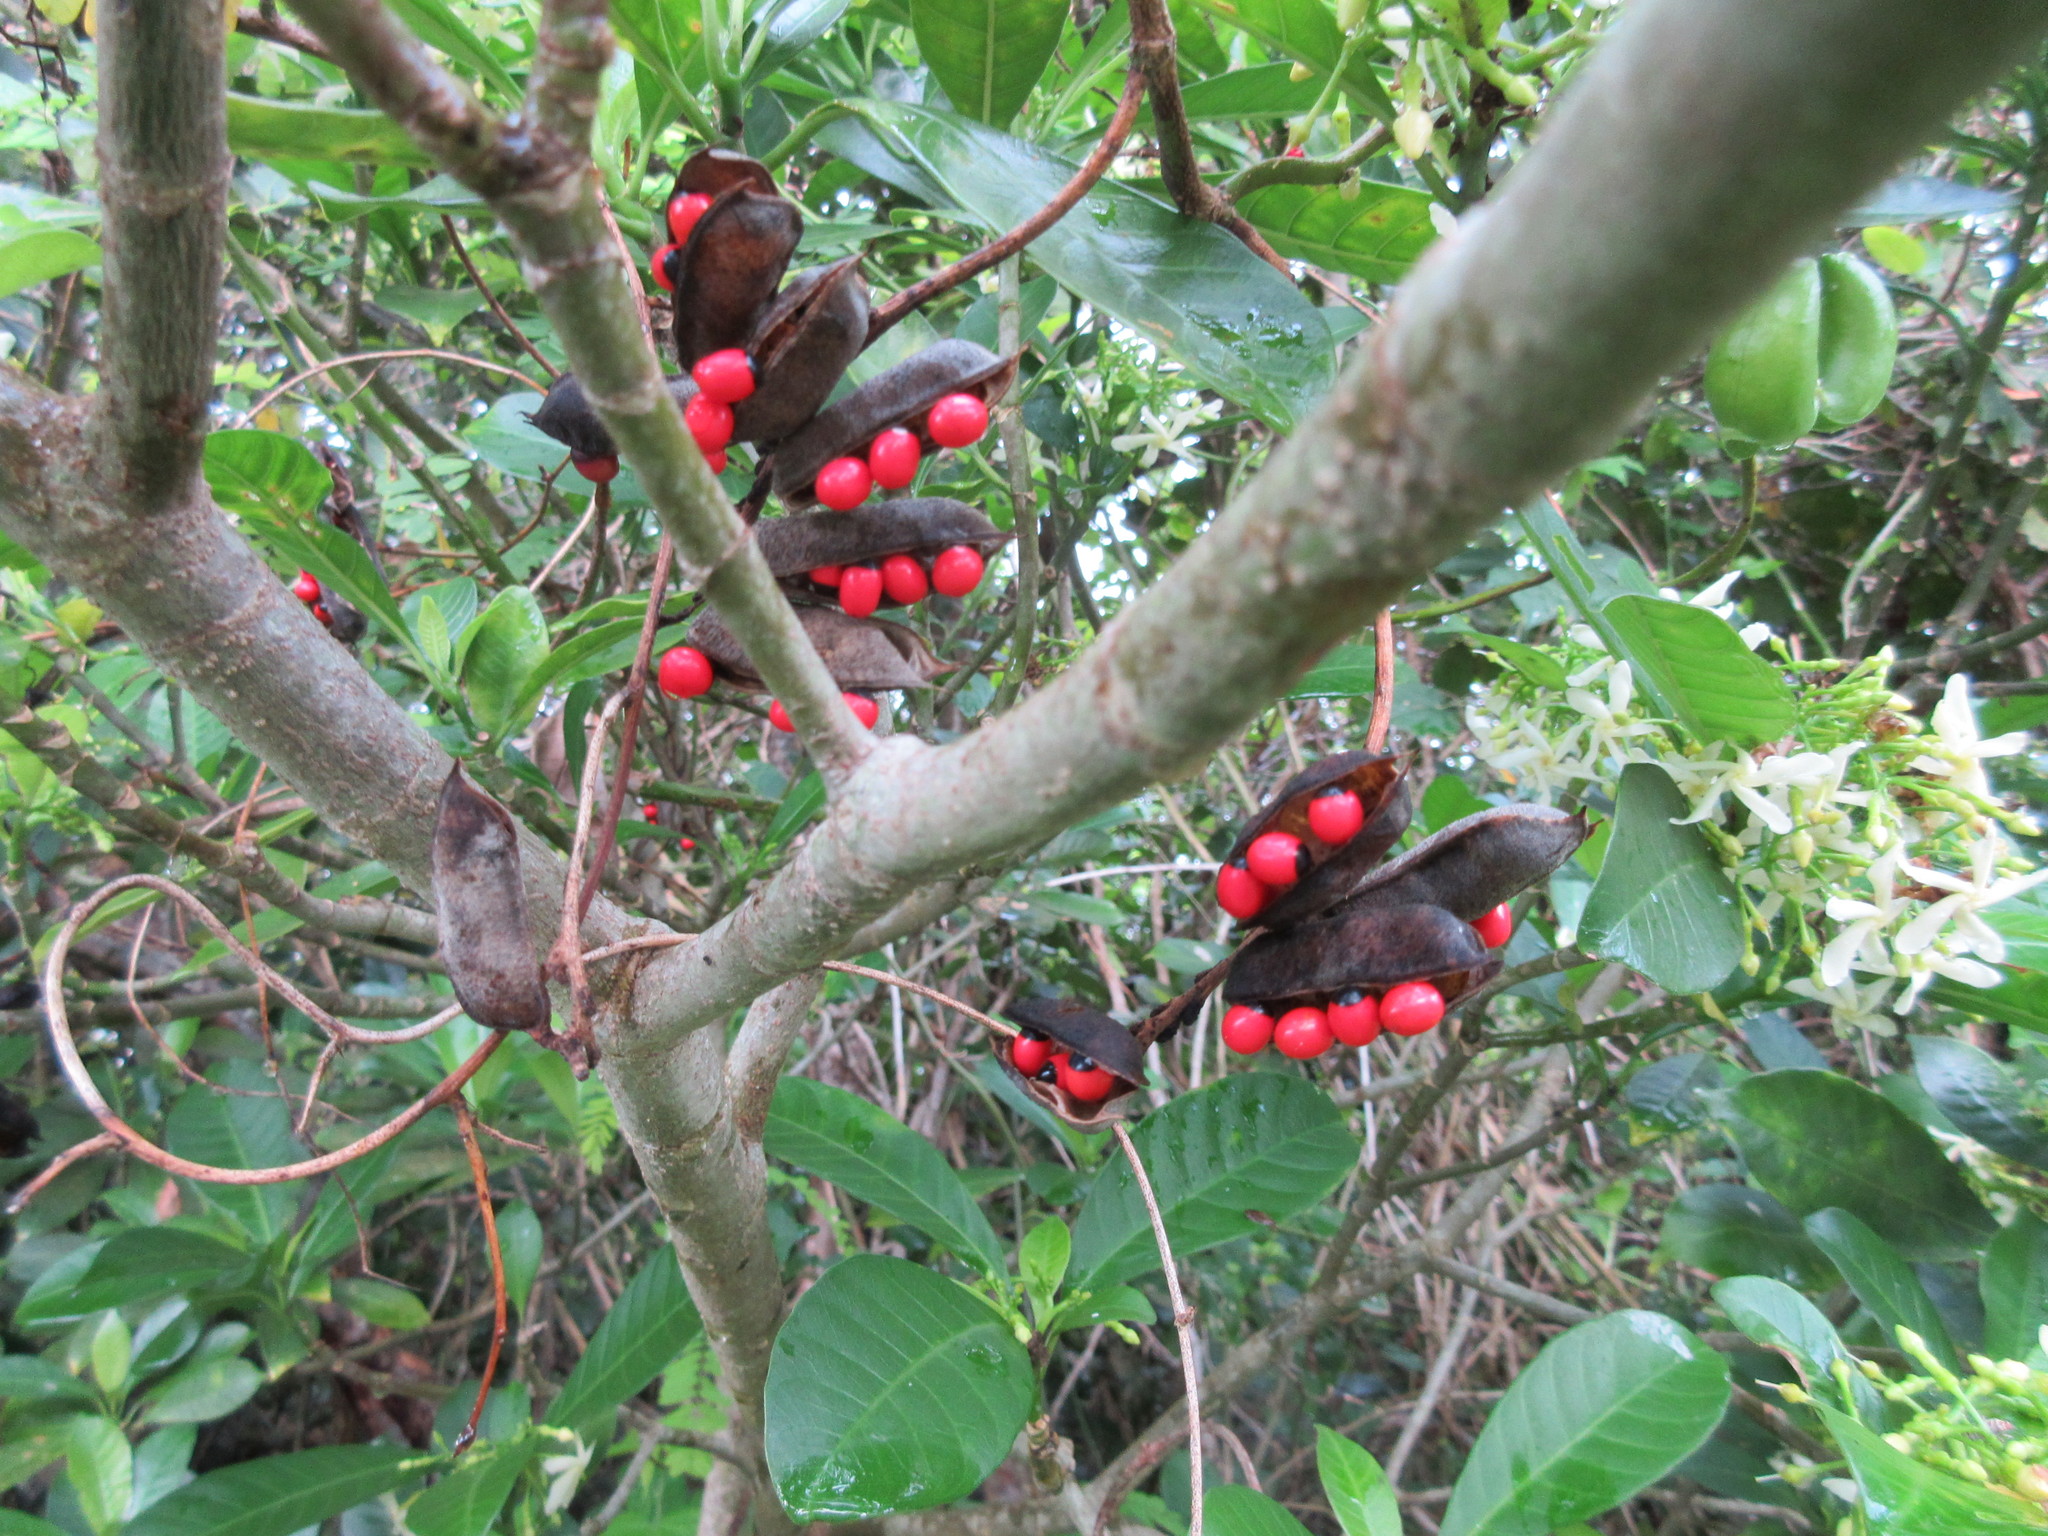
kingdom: Plantae
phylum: Tracheophyta
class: Magnoliopsida
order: Gentianales
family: Apocynaceae
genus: Tabernaemontana
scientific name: Tabernaemontana alba
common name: White milkwood
